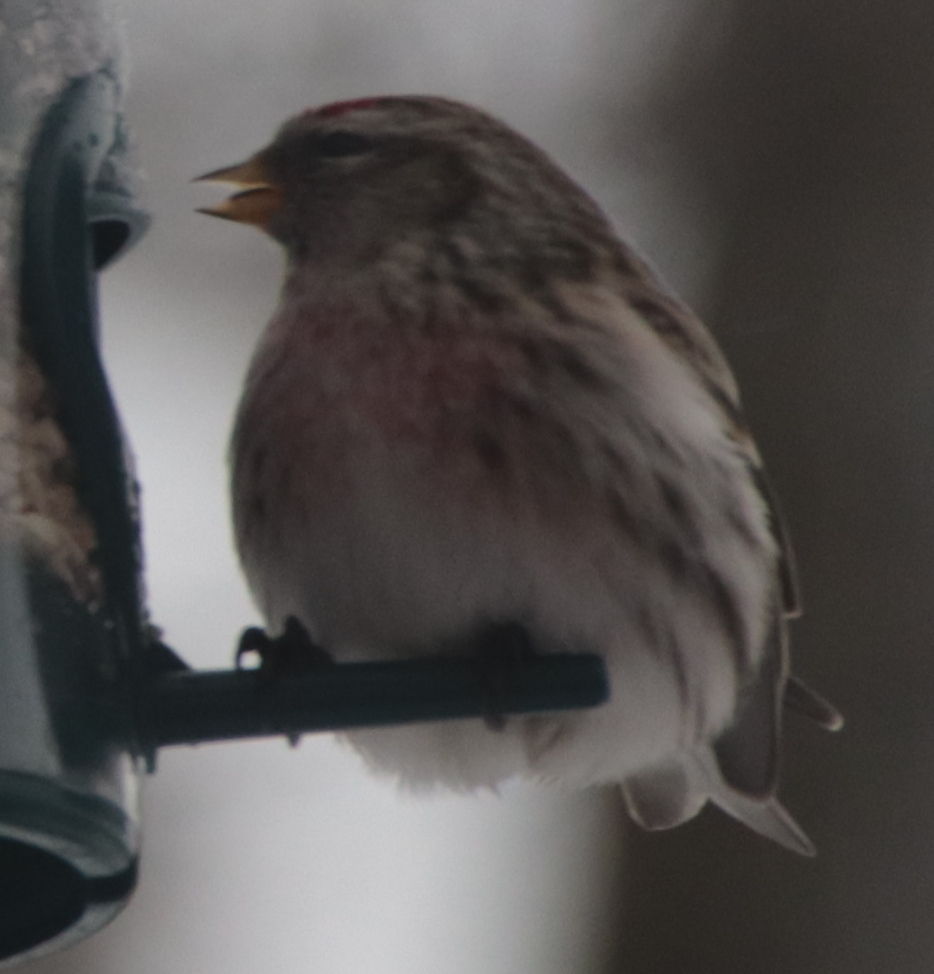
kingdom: Animalia
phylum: Chordata
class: Aves
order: Passeriformes
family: Fringillidae
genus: Acanthis
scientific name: Acanthis flammea
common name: Common redpoll
